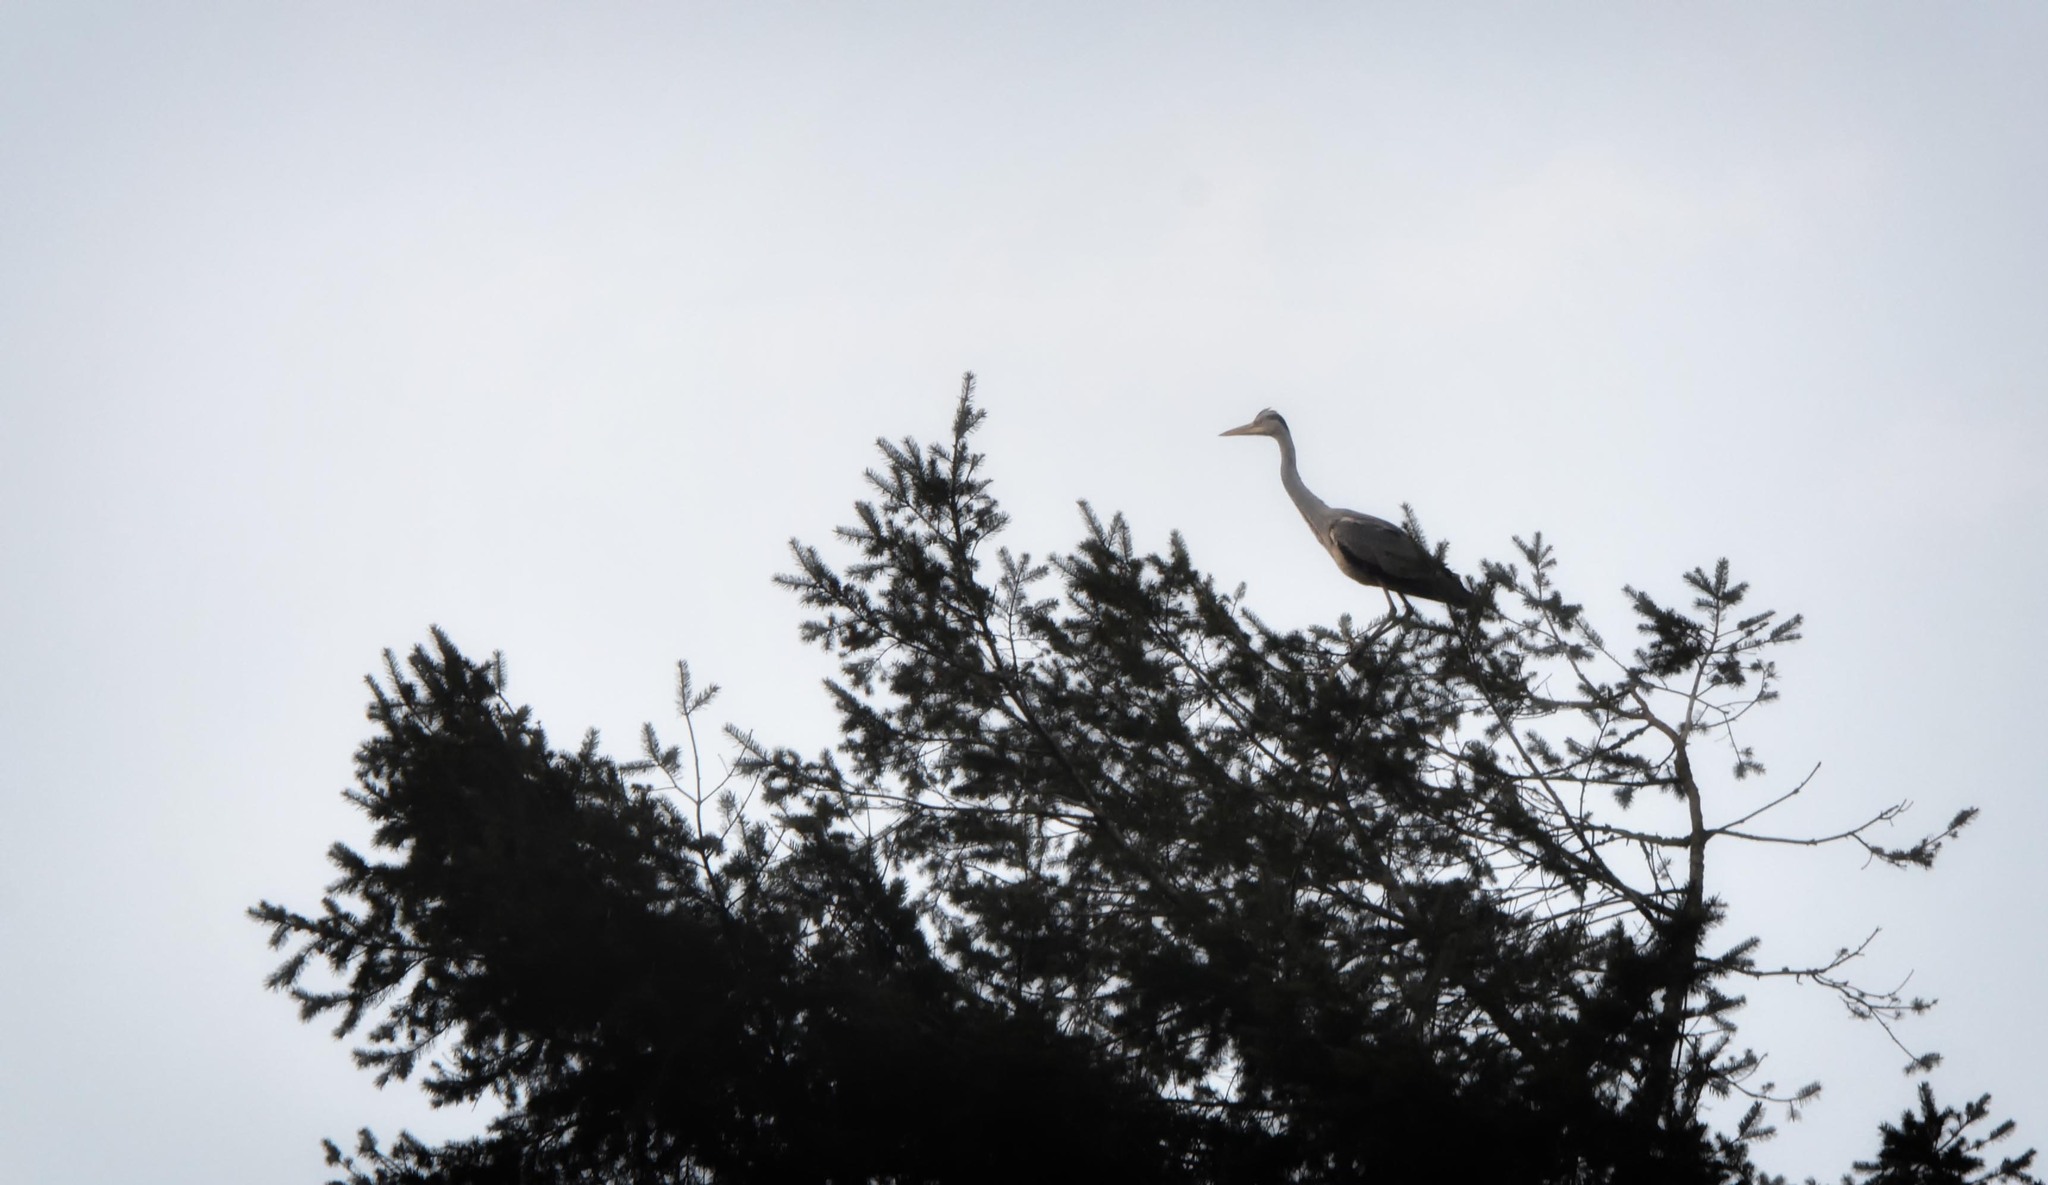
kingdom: Animalia
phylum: Chordata
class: Aves
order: Pelecaniformes
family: Ardeidae
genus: Ardea
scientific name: Ardea cinerea
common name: Grey heron
